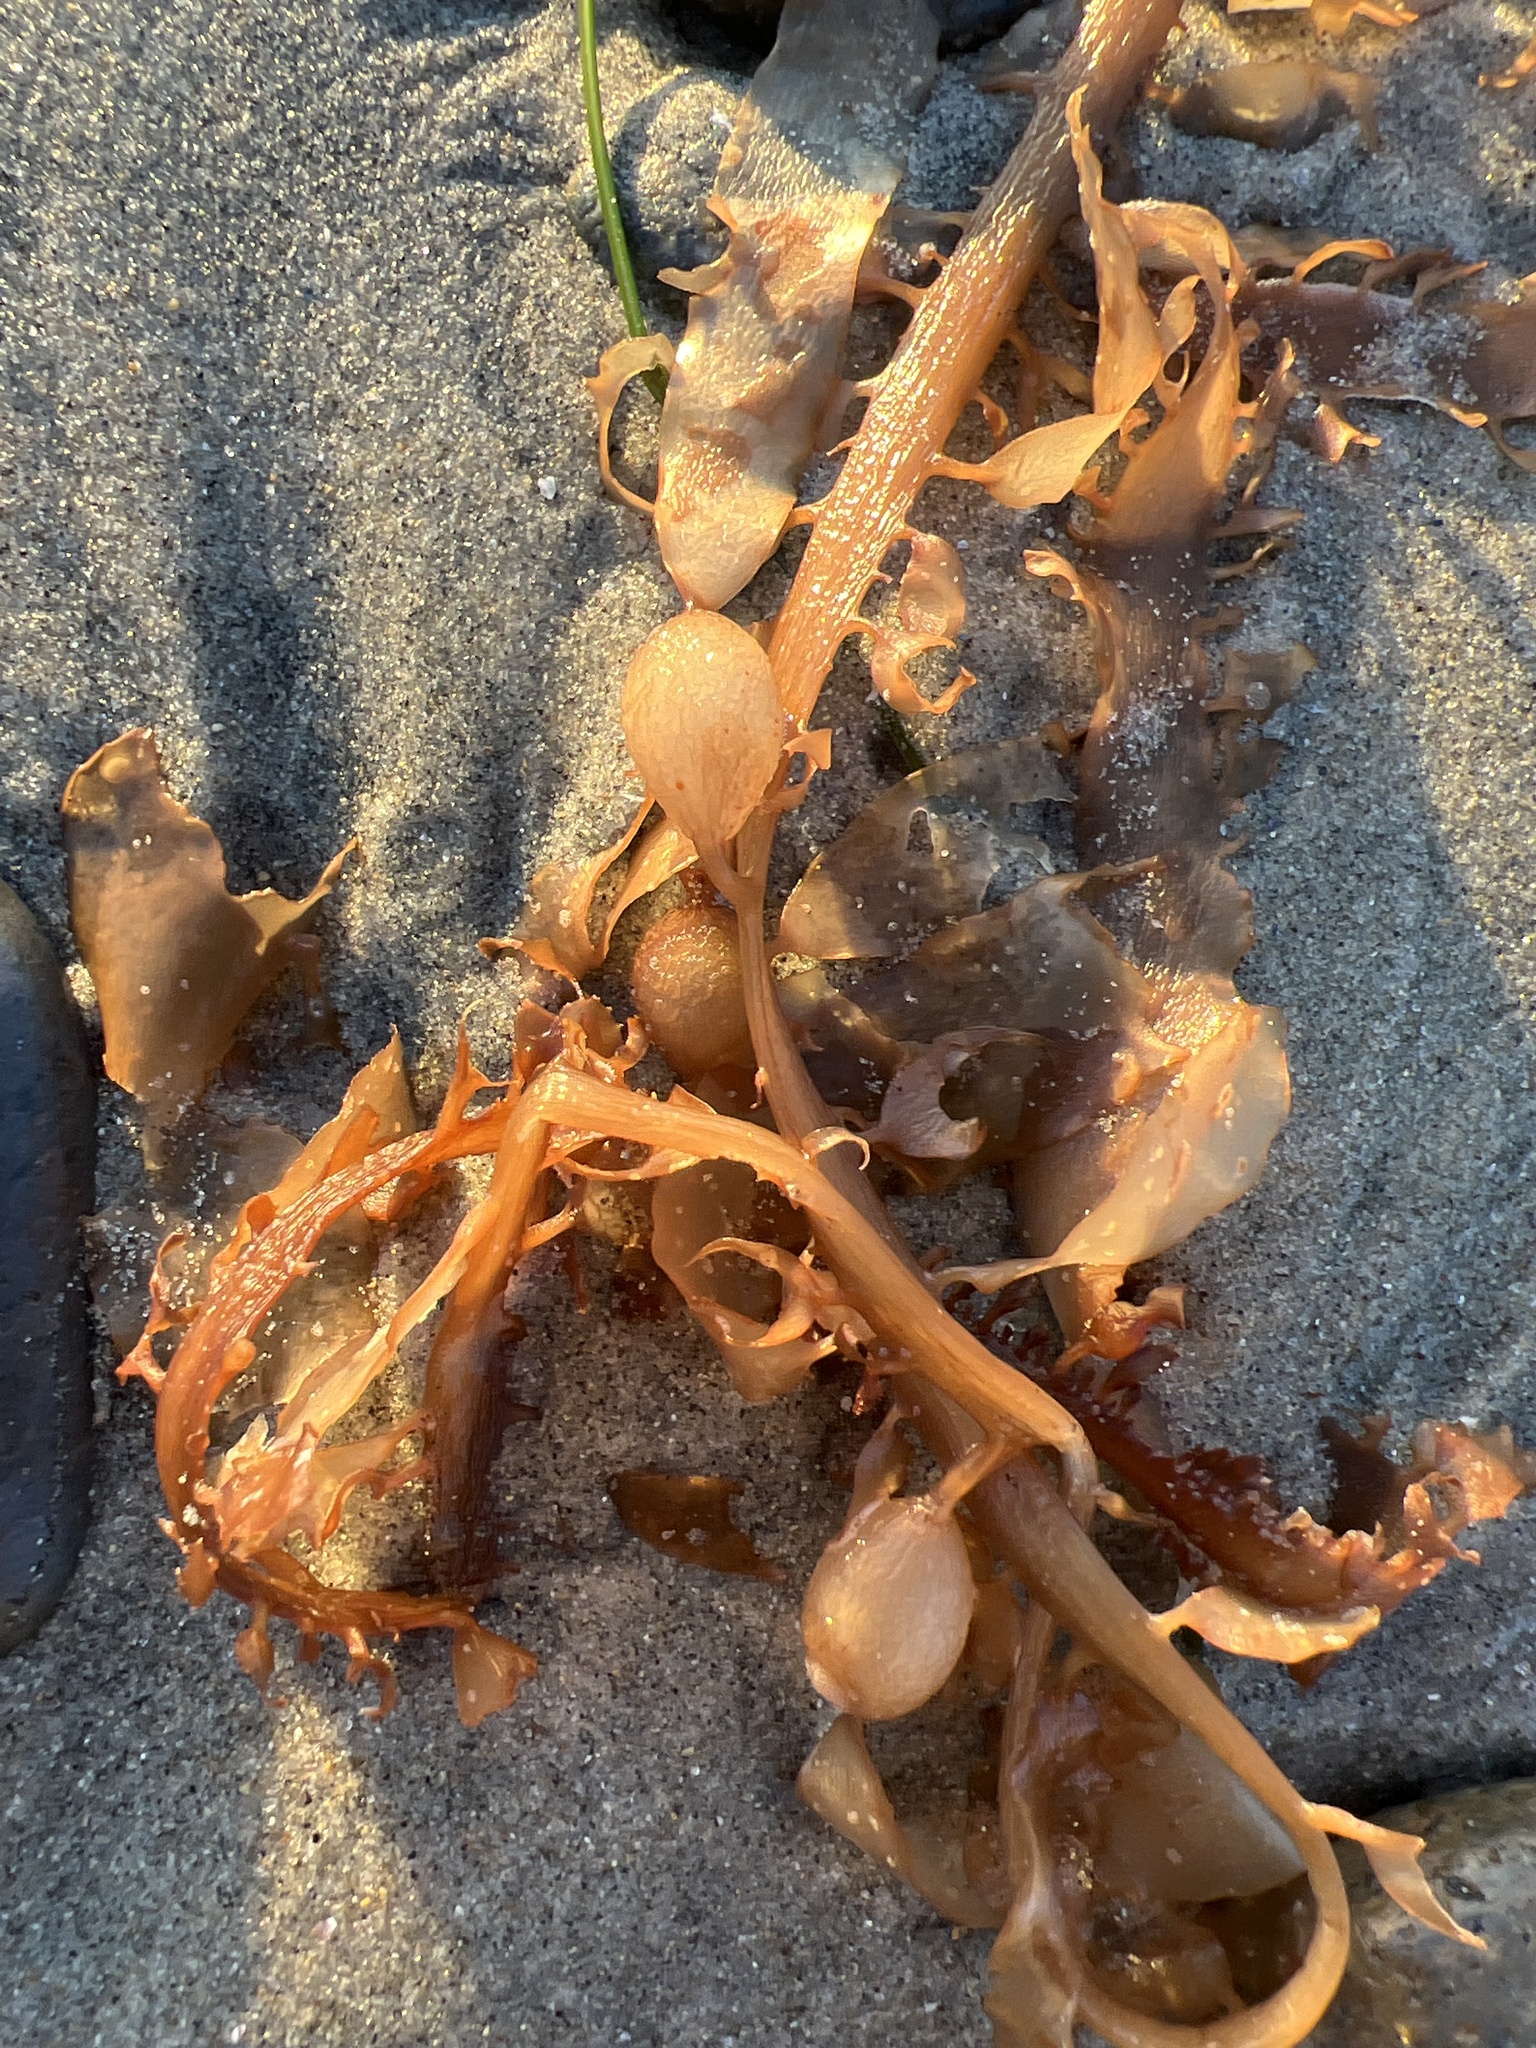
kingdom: Chromista
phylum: Ochrophyta
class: Phaeophyceae
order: Laminariales
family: Lessoniaceae
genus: Egregia
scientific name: Egregia menziesii
